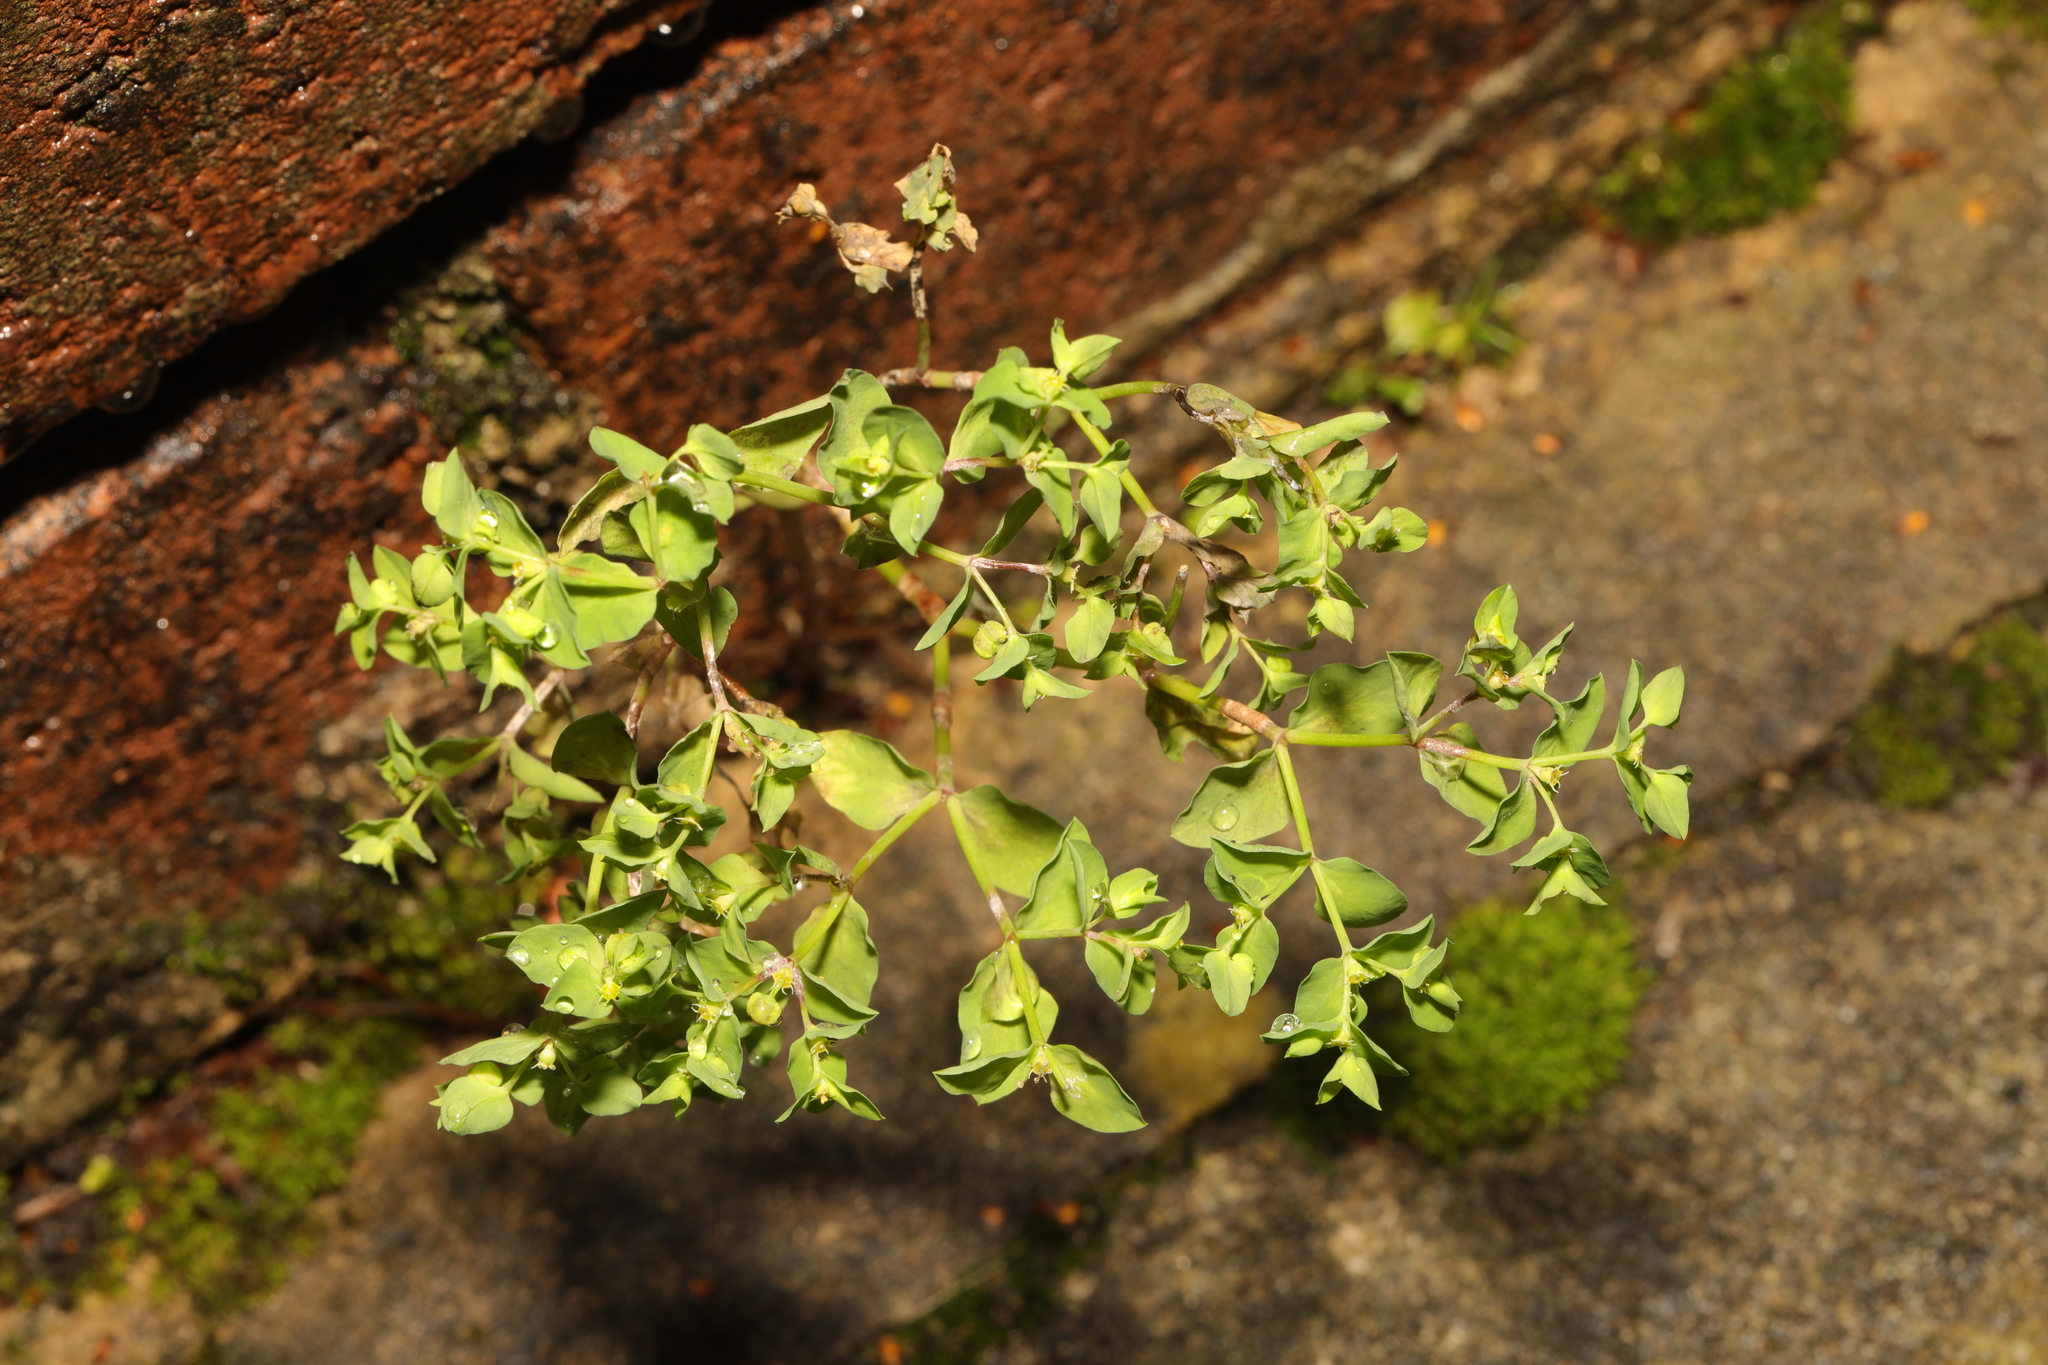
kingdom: Plantae
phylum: Tracheophyta
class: Magnoliopsida
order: Malpighiales
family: Euphorbiaceae
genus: Euphorbia
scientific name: Euphorbia peplus
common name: Petty spurge
